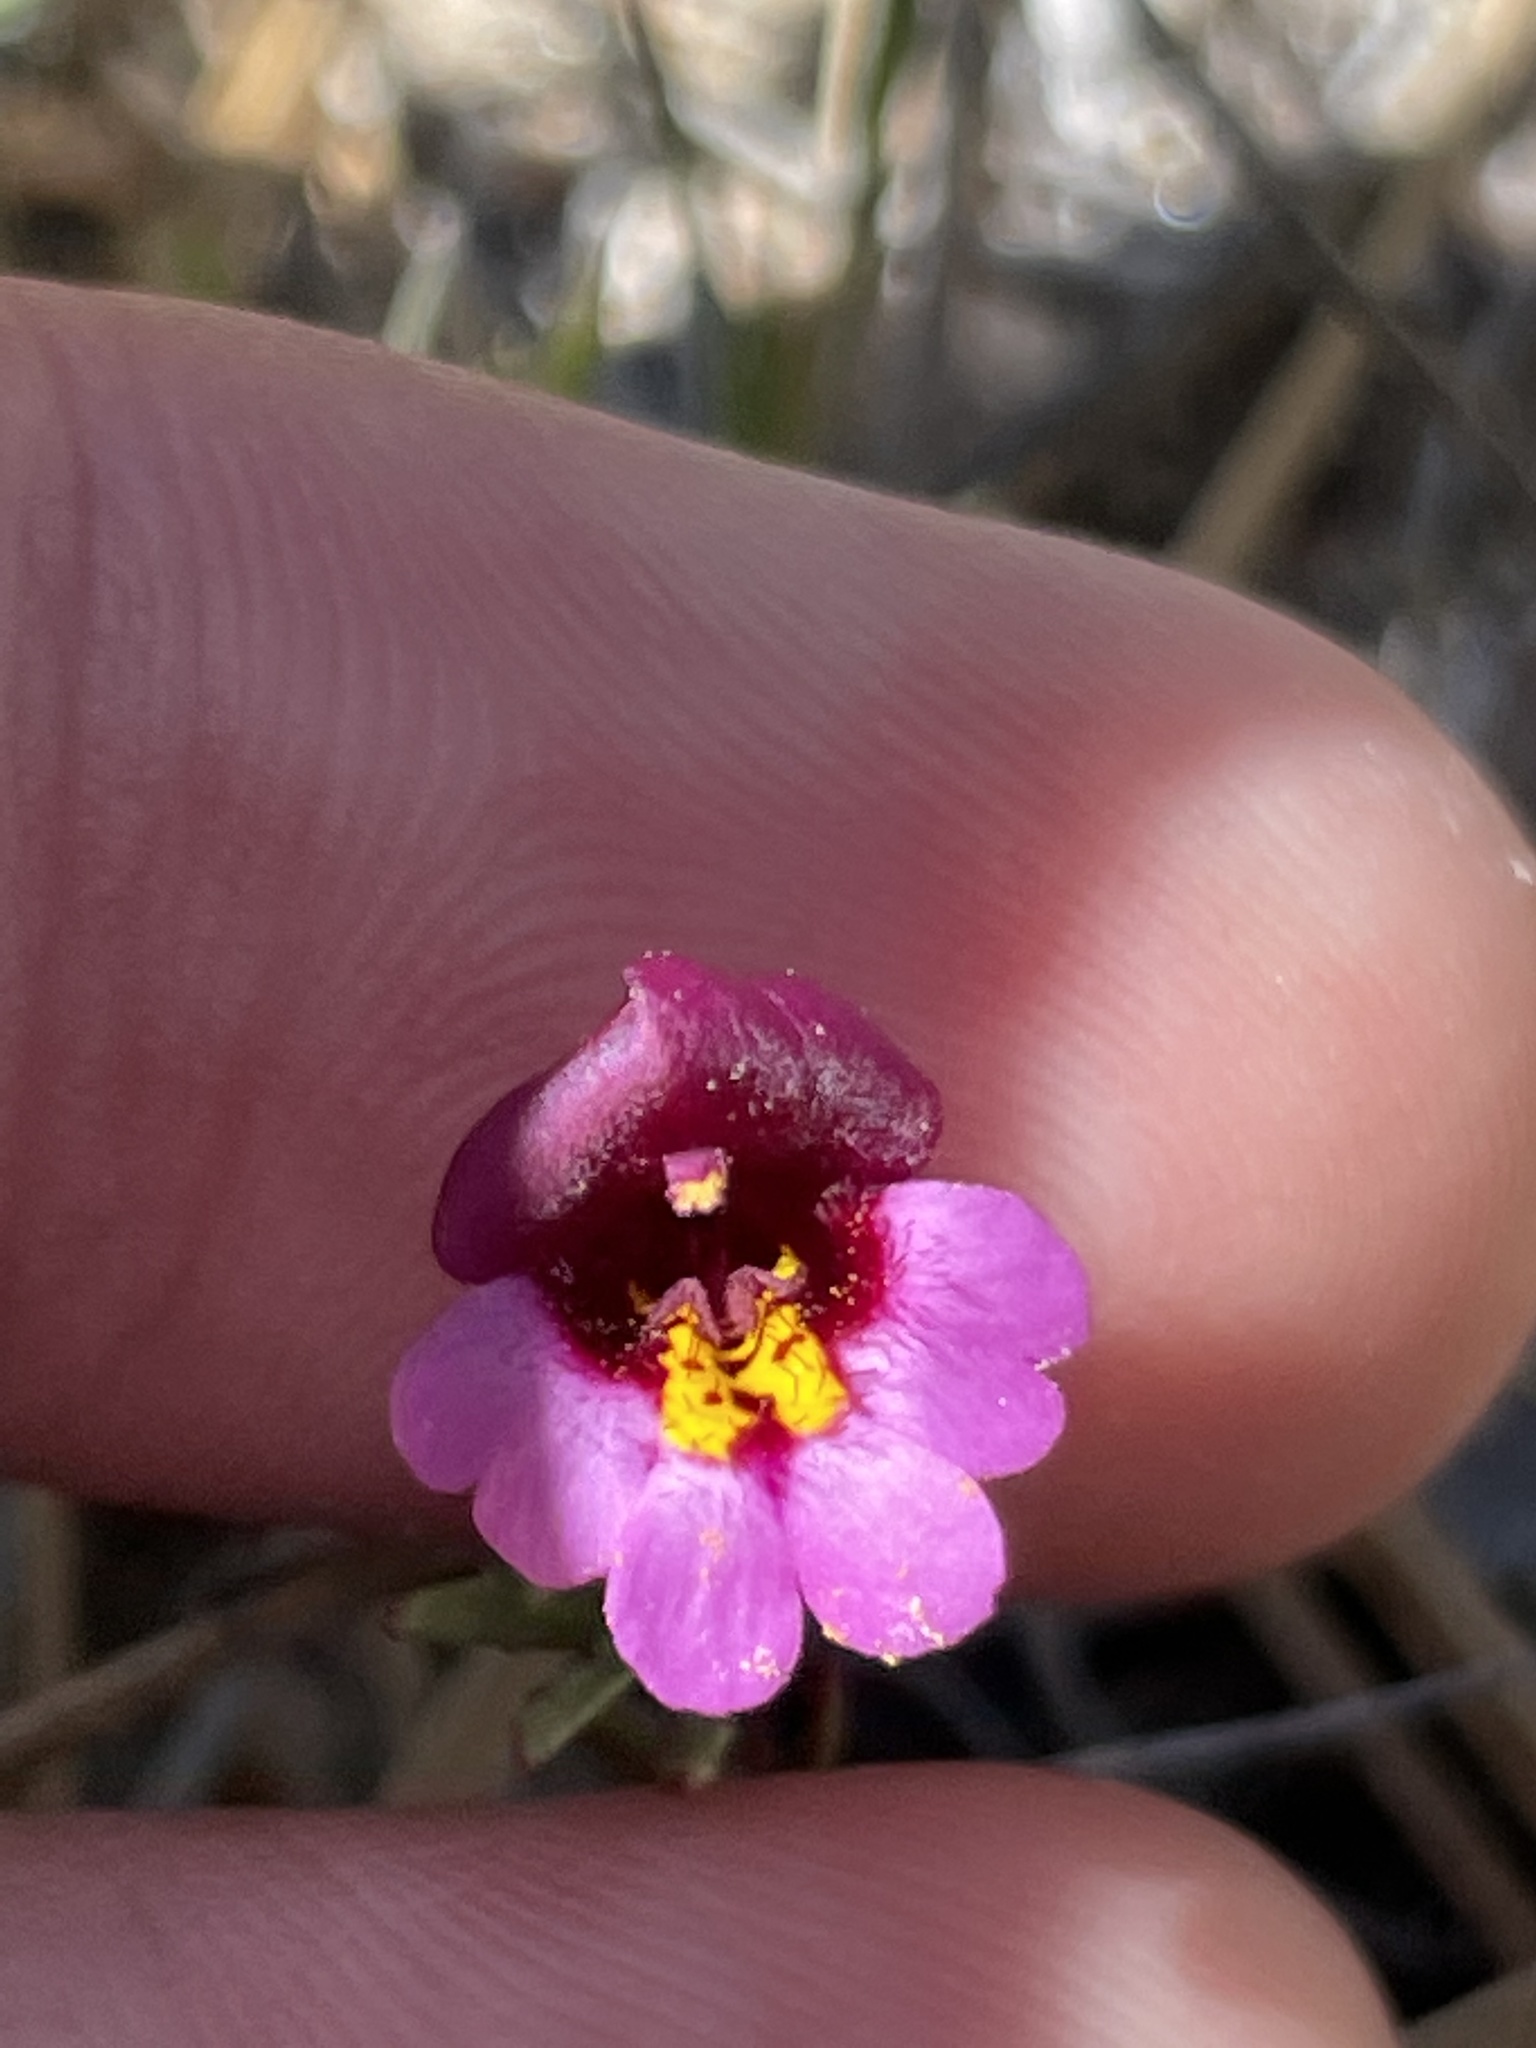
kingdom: Plantae
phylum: Tracheophyta
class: Magnoliopsida
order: Lamiales
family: Phrymaceae
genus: Erythranthe
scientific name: Erythranthe purpurea
